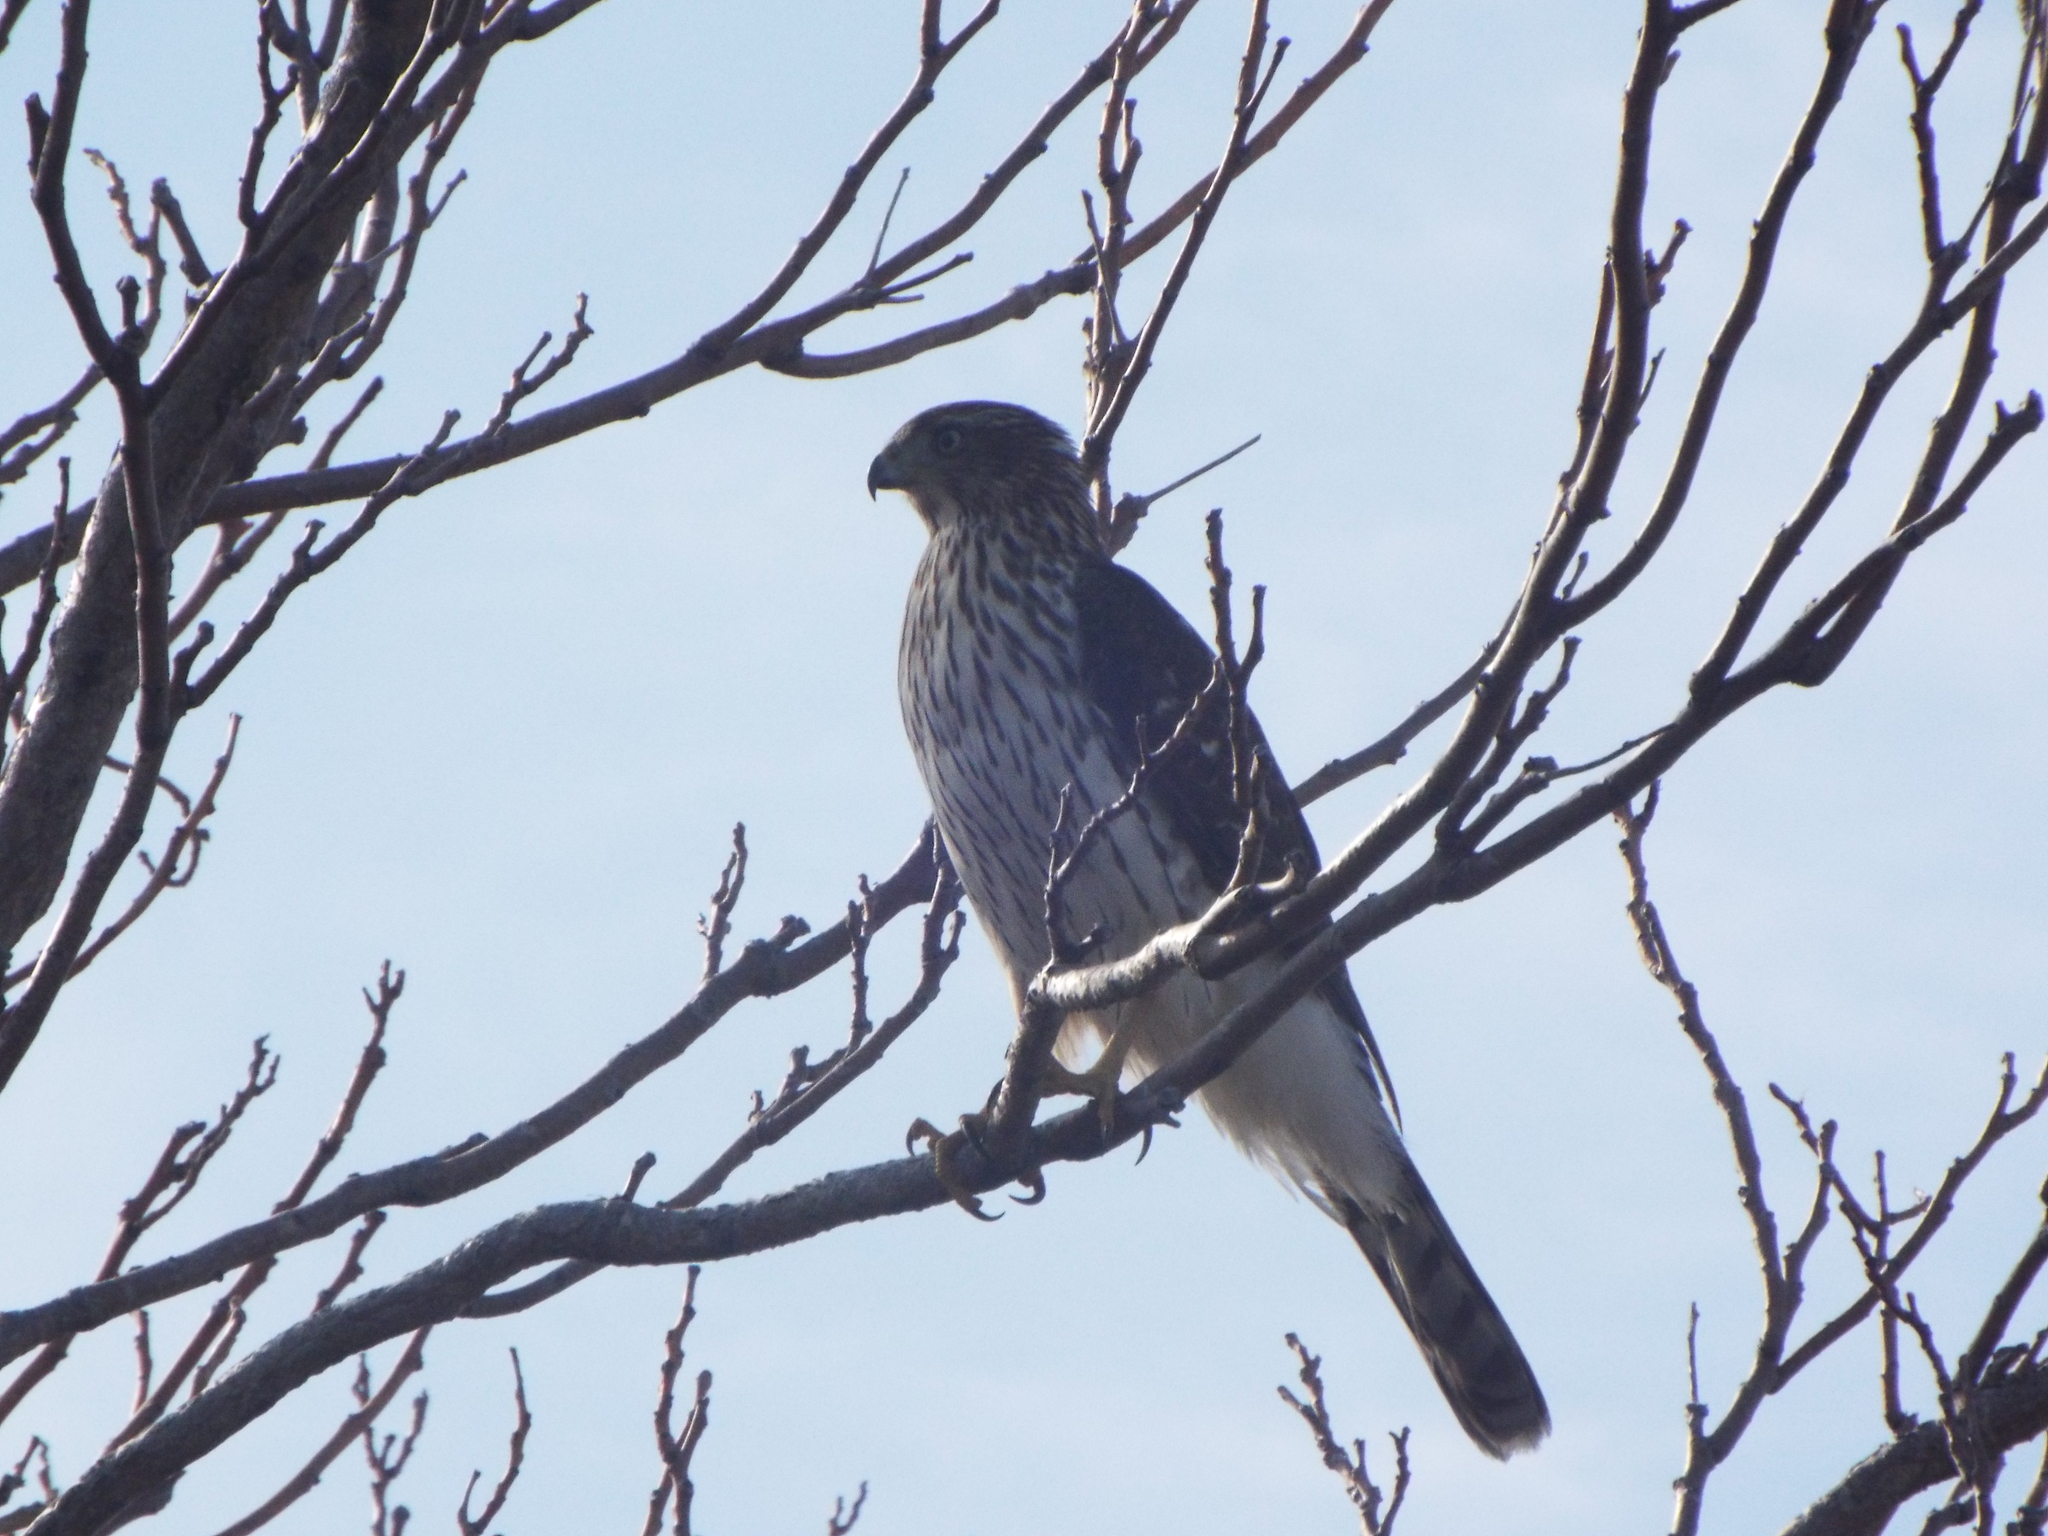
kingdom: Animalia
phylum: Chordata
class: Aves
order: Accipitriformes
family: Accipitridae
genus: Accipiter
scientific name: Accipiter cooperii
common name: Cooper's hawk
